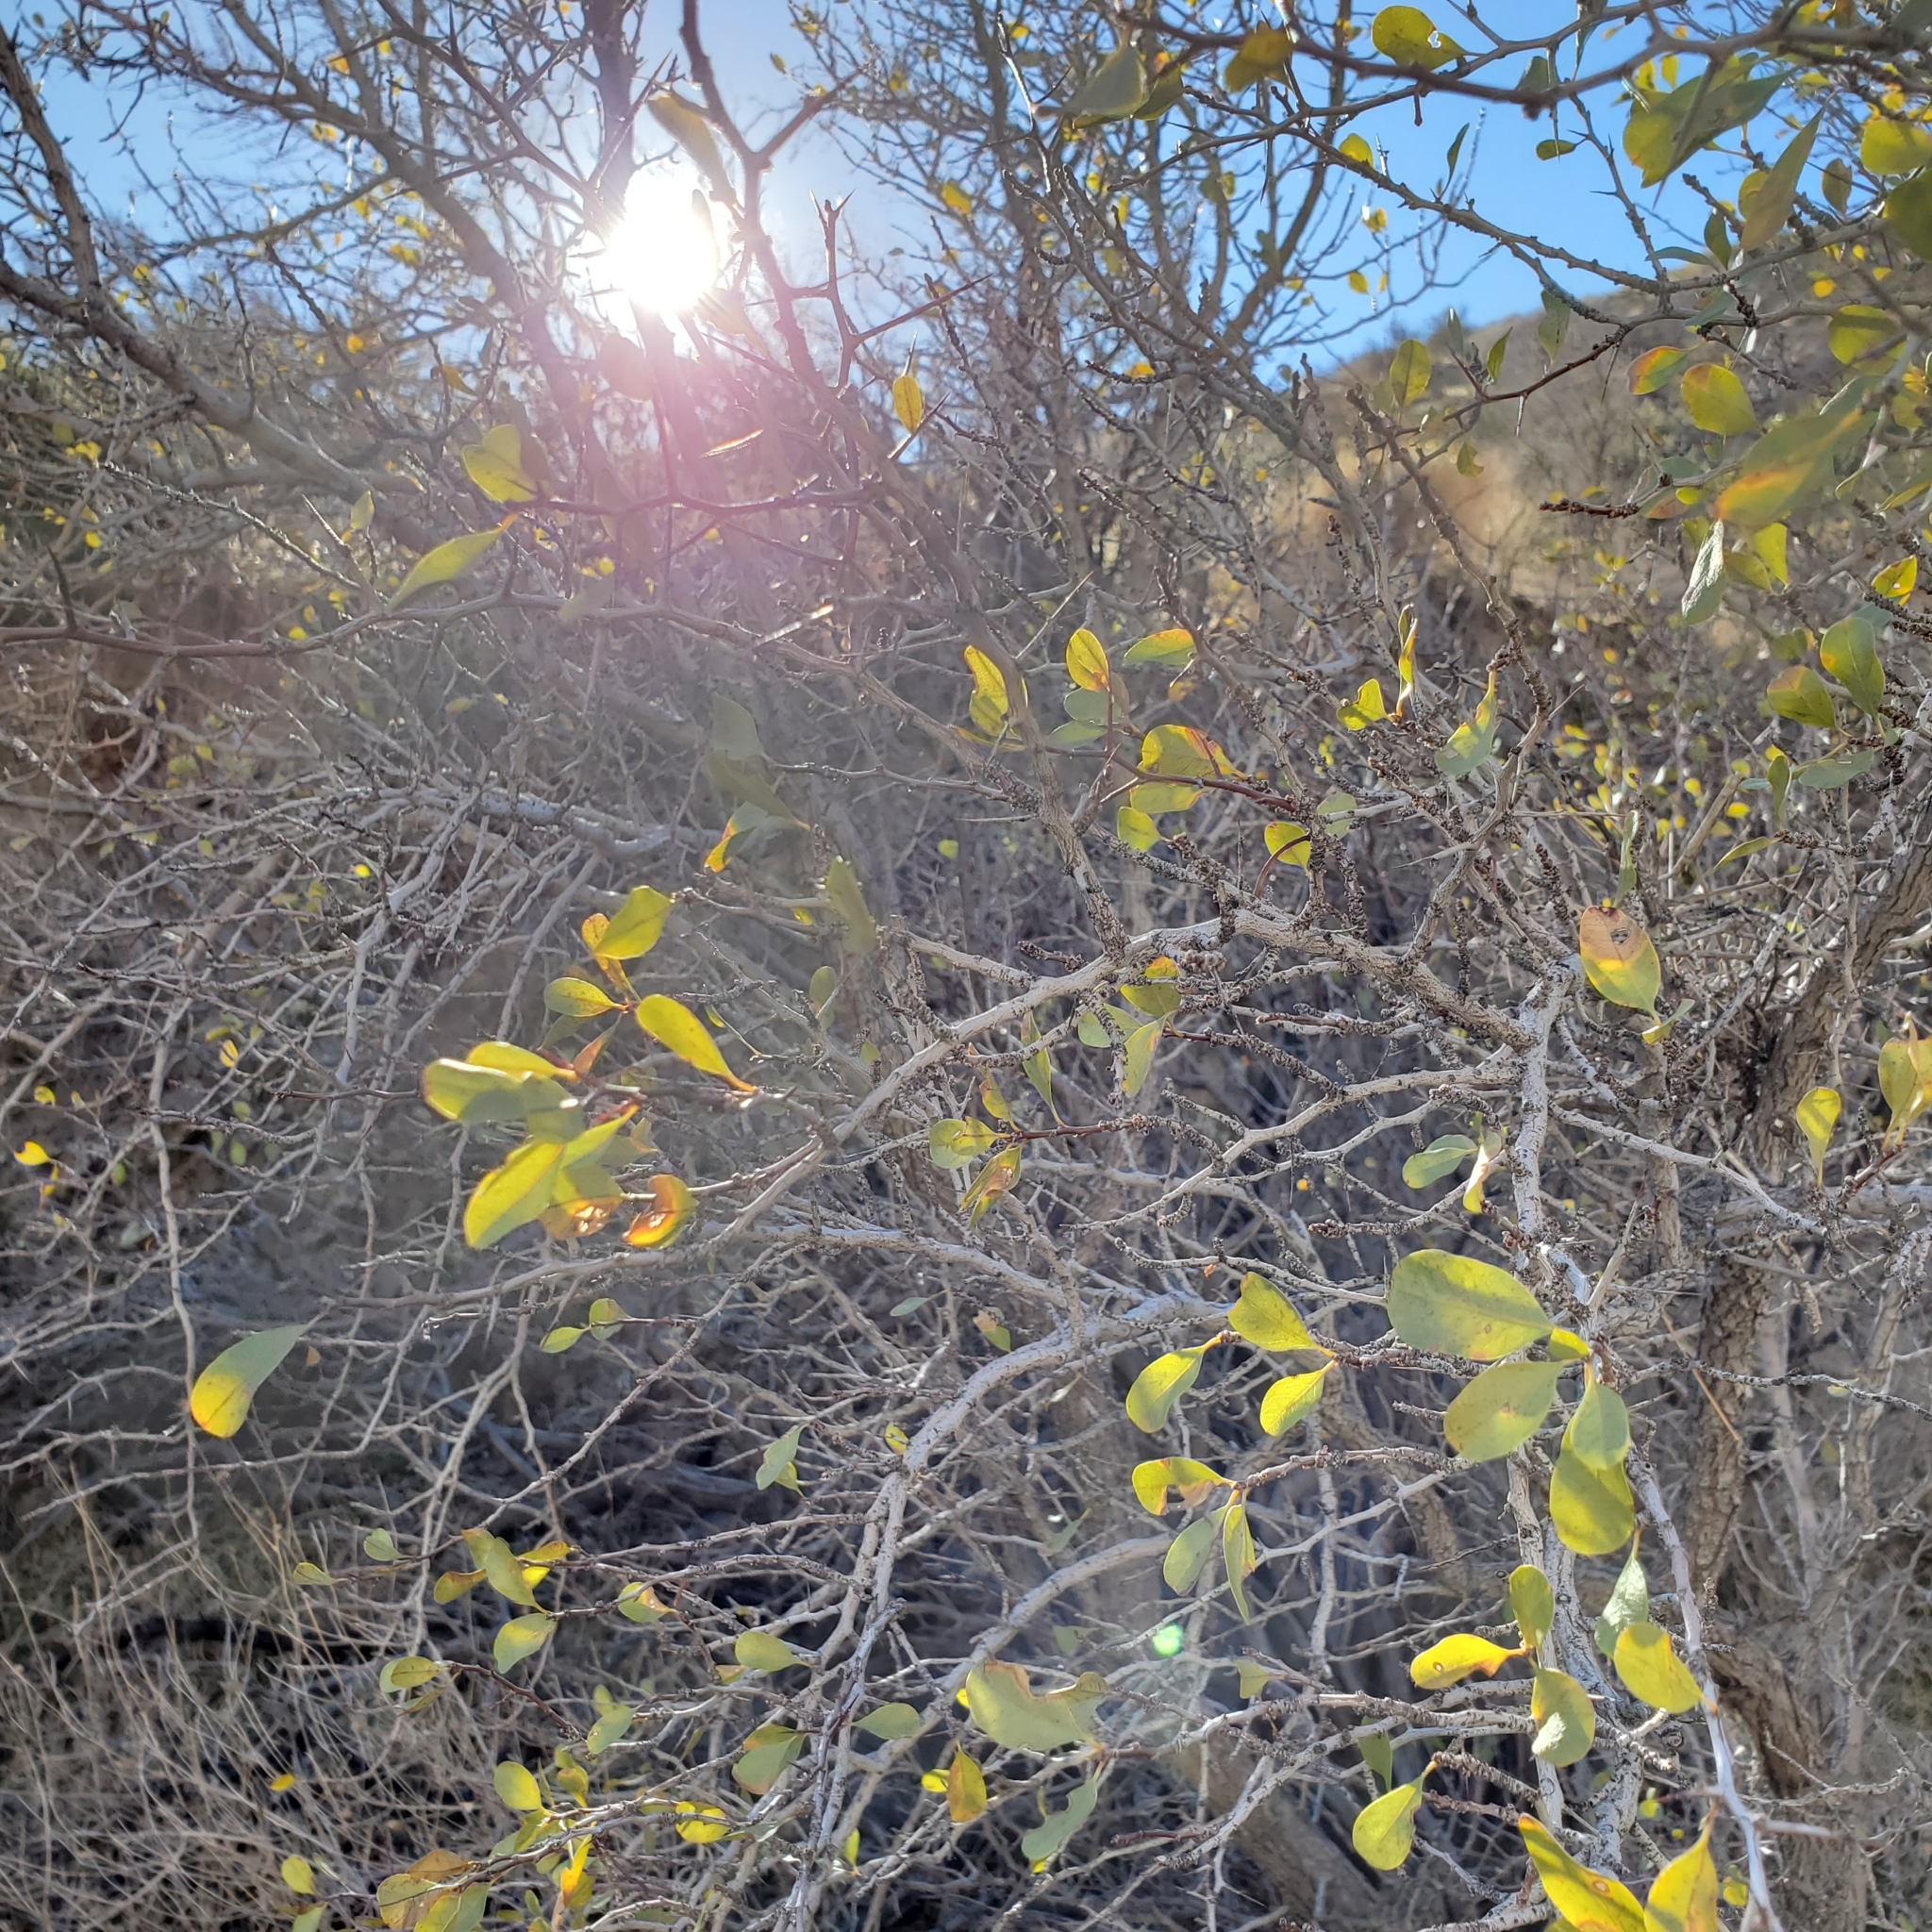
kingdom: Plantae
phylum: Tracheophyta
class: Magnoliopsida
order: Rosales
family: Rhamnaceae
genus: Pseudoziziphus
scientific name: Pseudoziziphus parryi
